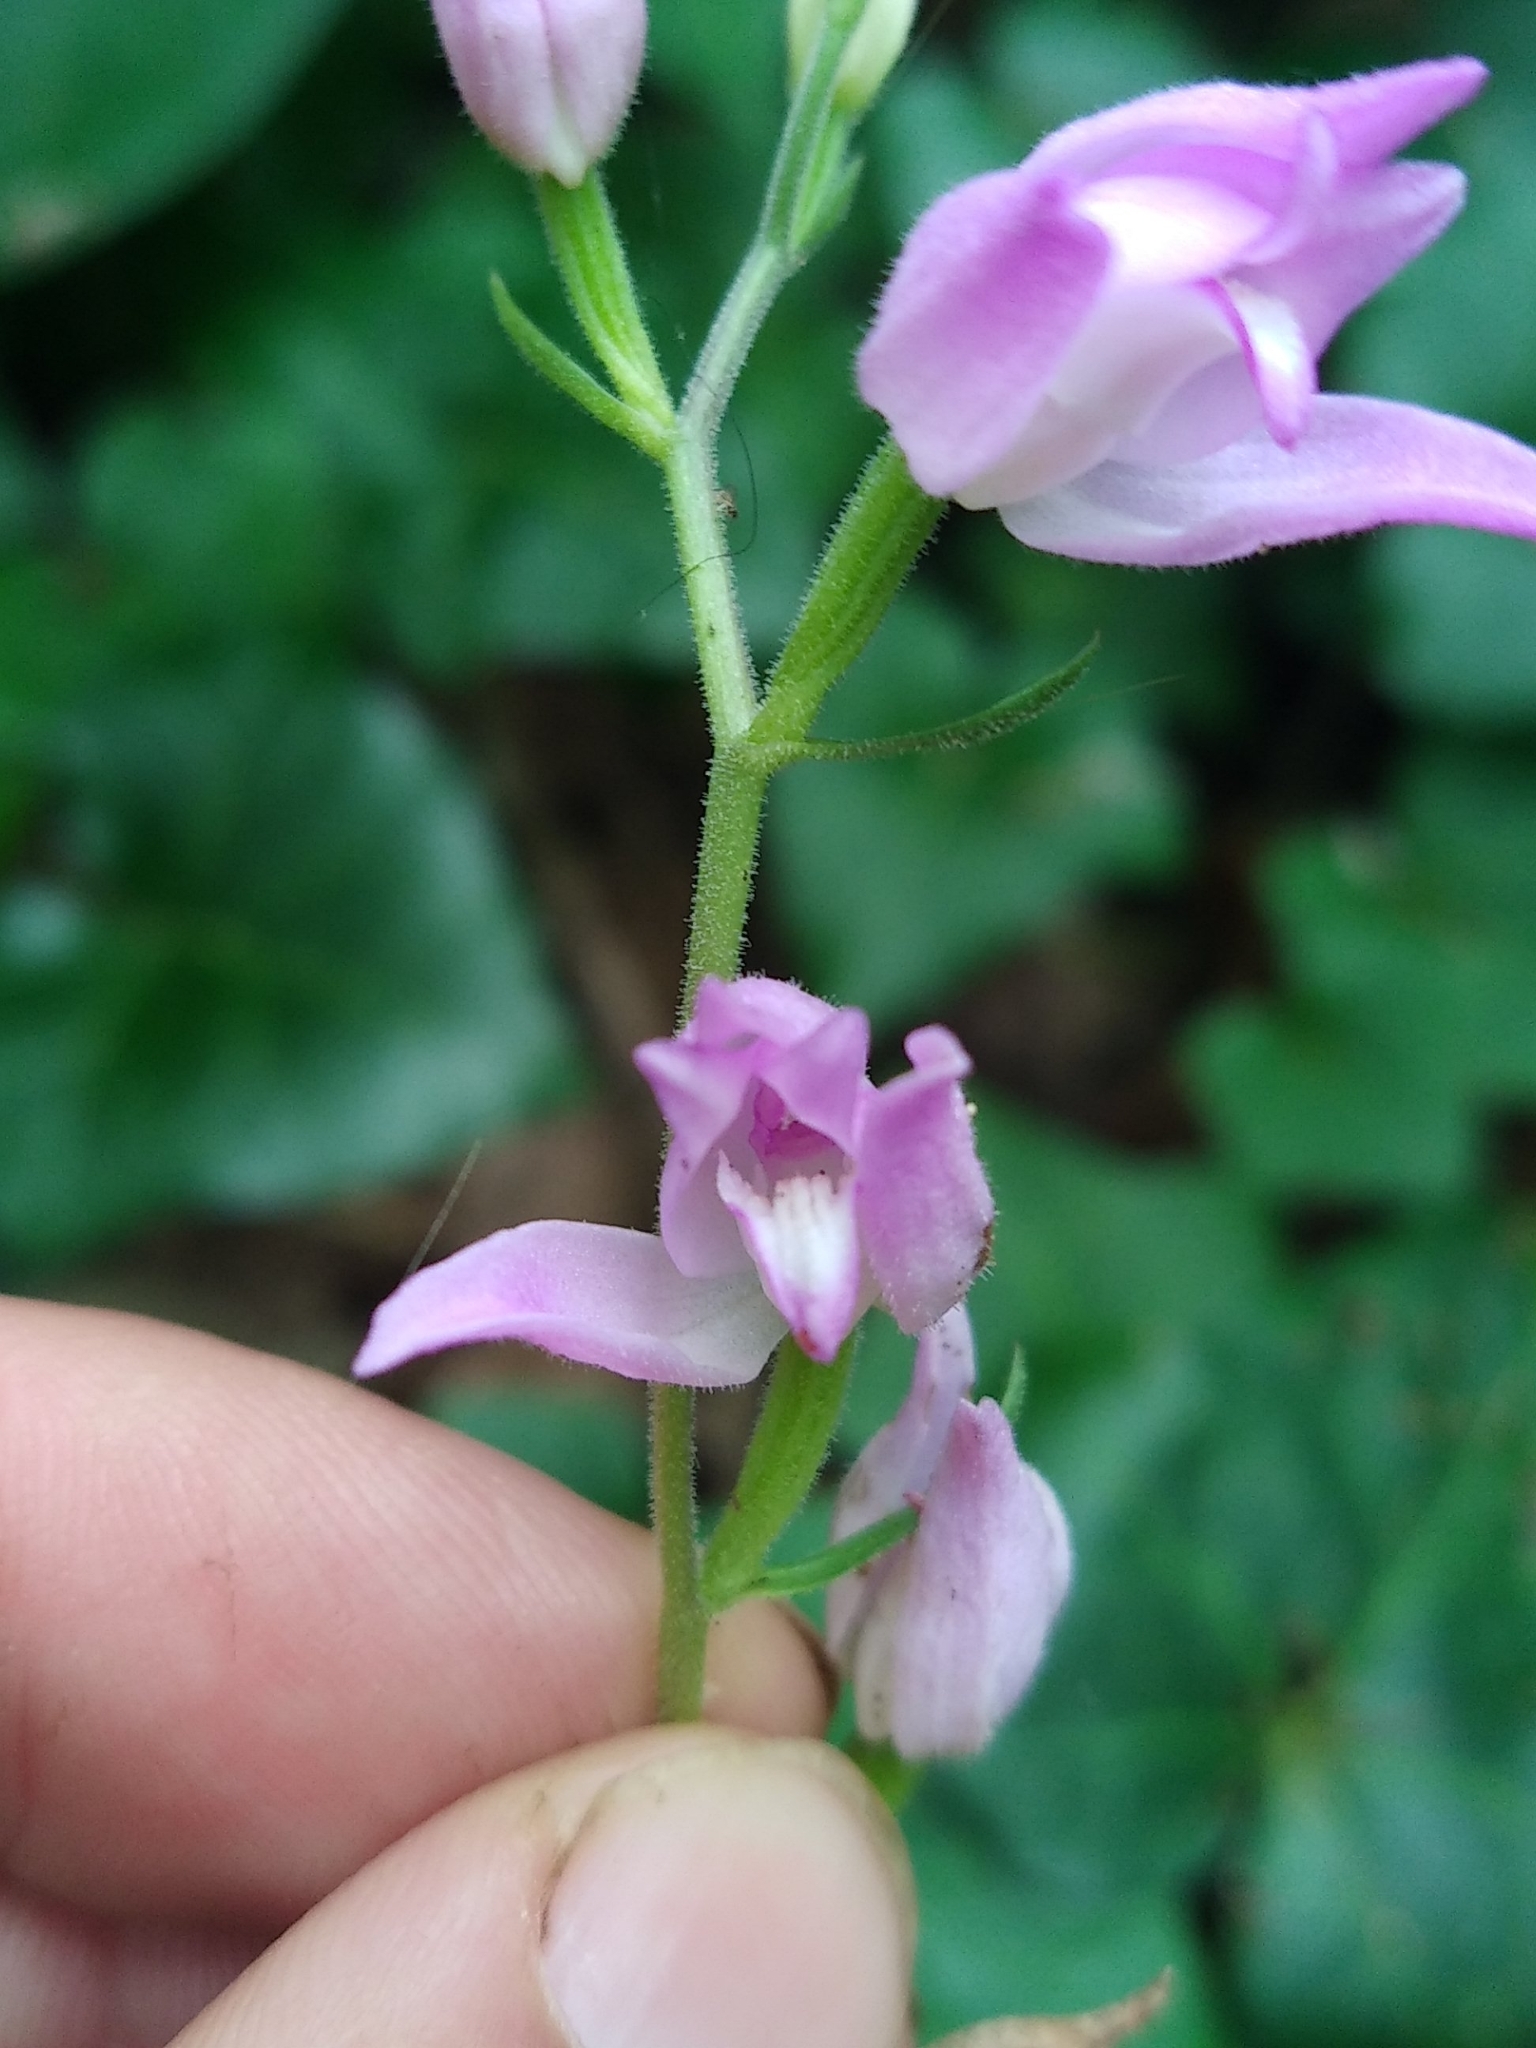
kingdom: Plantae
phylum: Tracheophyta
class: Liliopsida
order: Asparagales
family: Orchidaceae
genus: Cephalanthera
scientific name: Cephalanthera rubra
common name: Red helleborine
